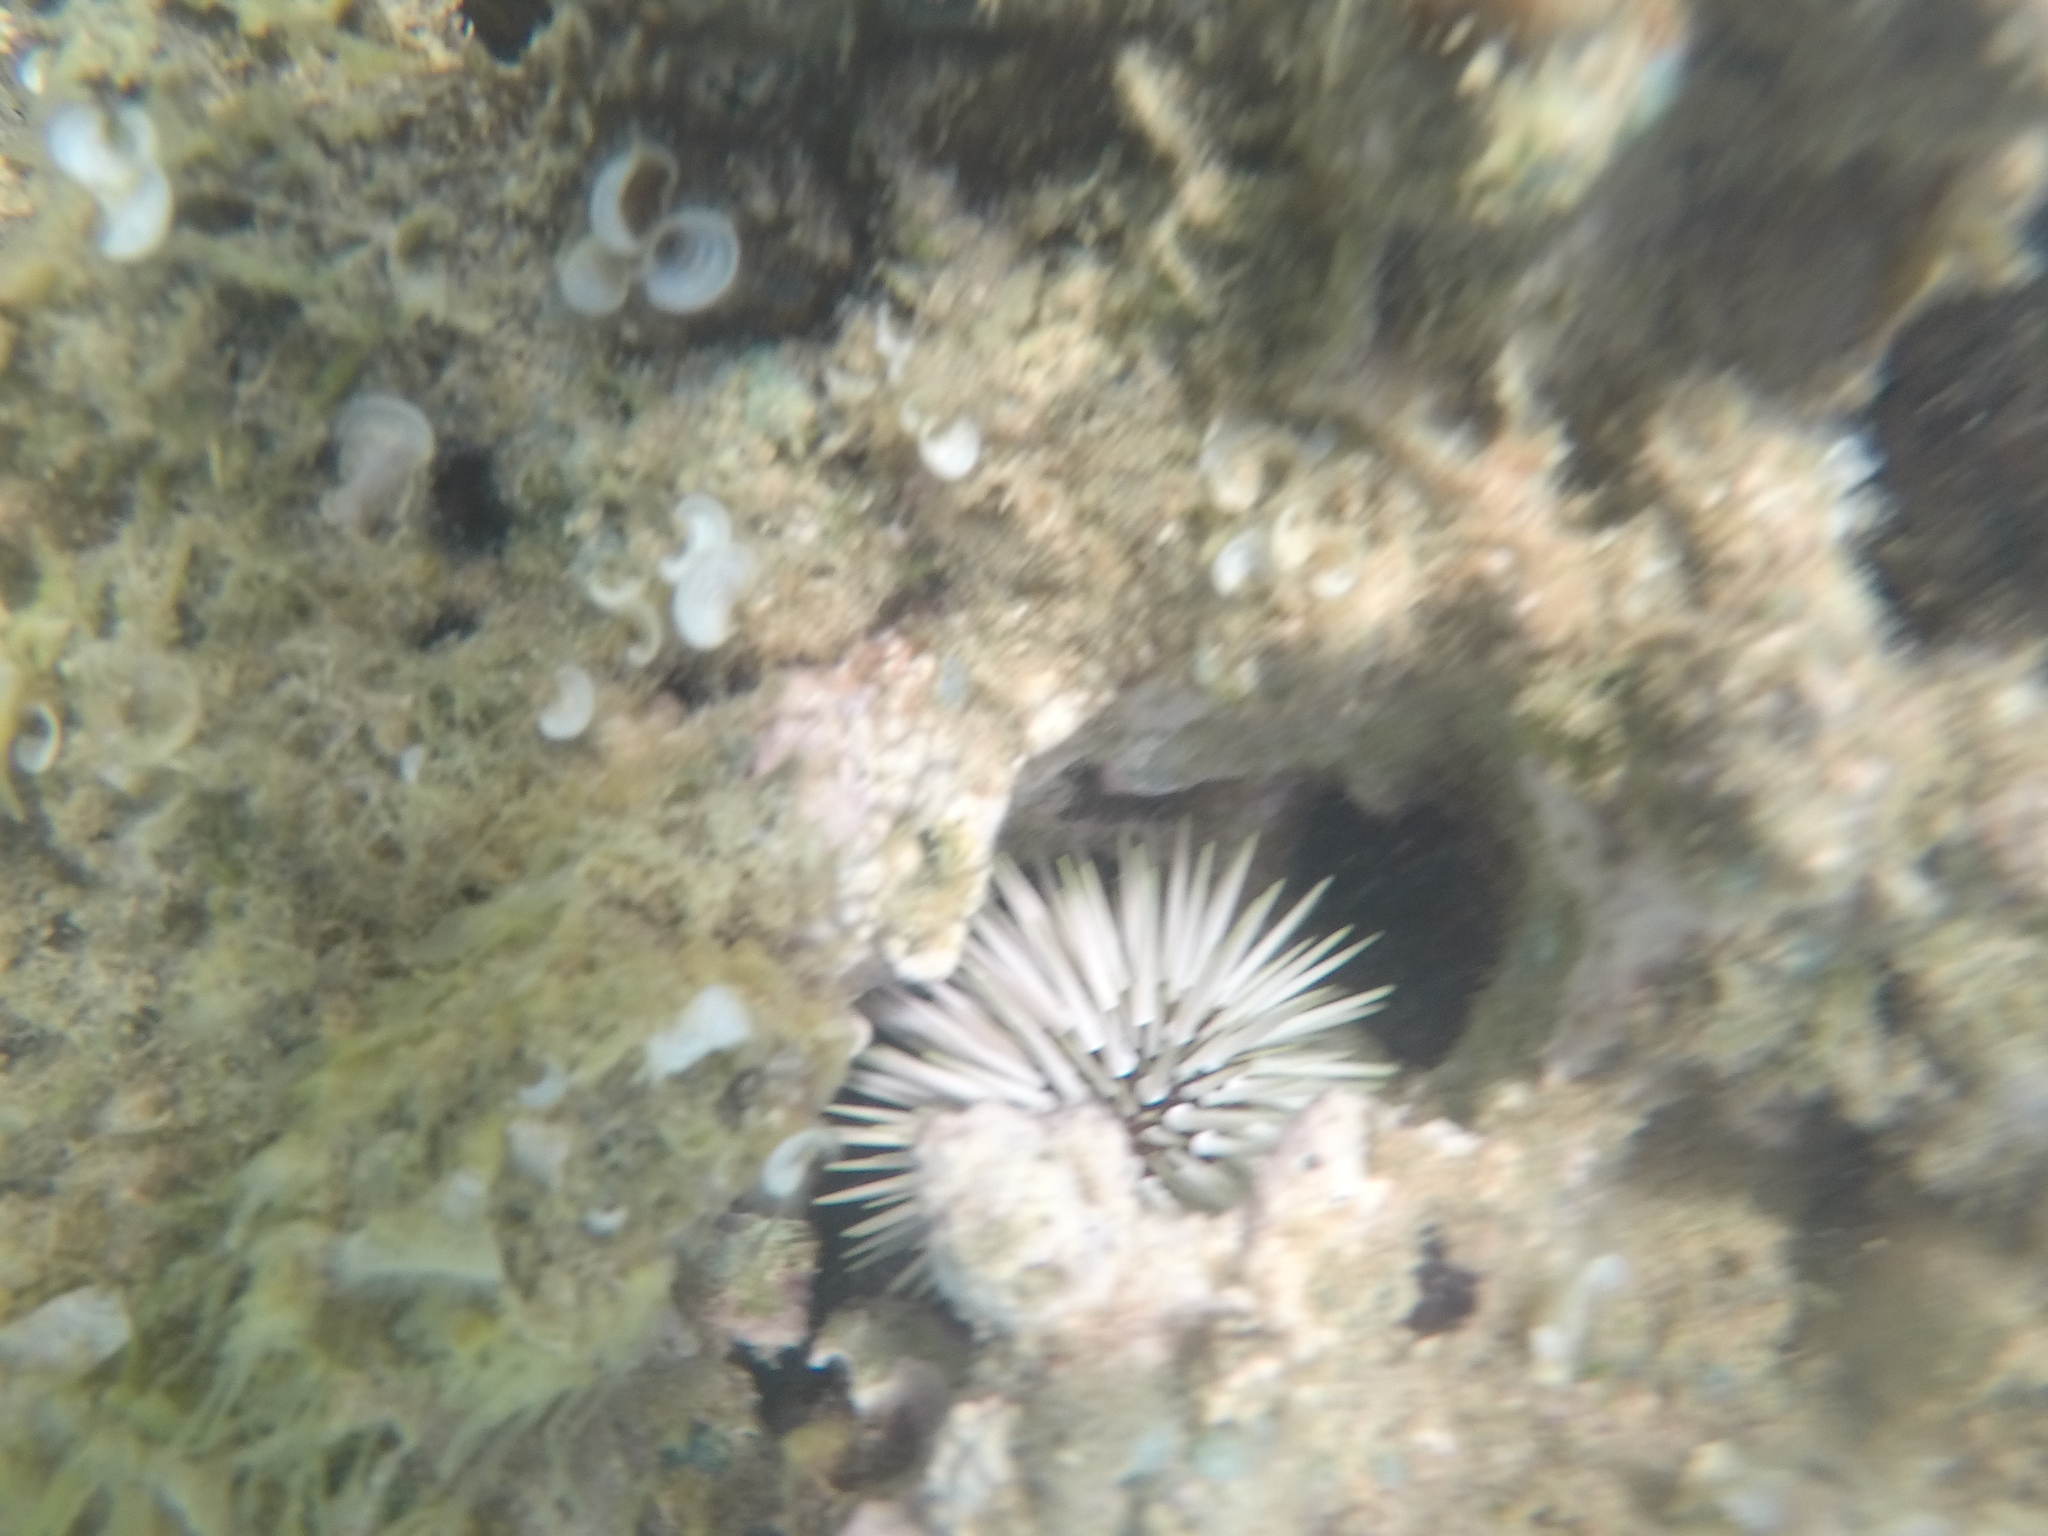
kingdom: Animalia
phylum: Echinodermata
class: Echinoidea
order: Camarodonta
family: Echinometridae
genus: Echinometra
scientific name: Echinometra mathaei
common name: Rock-boring urchin
